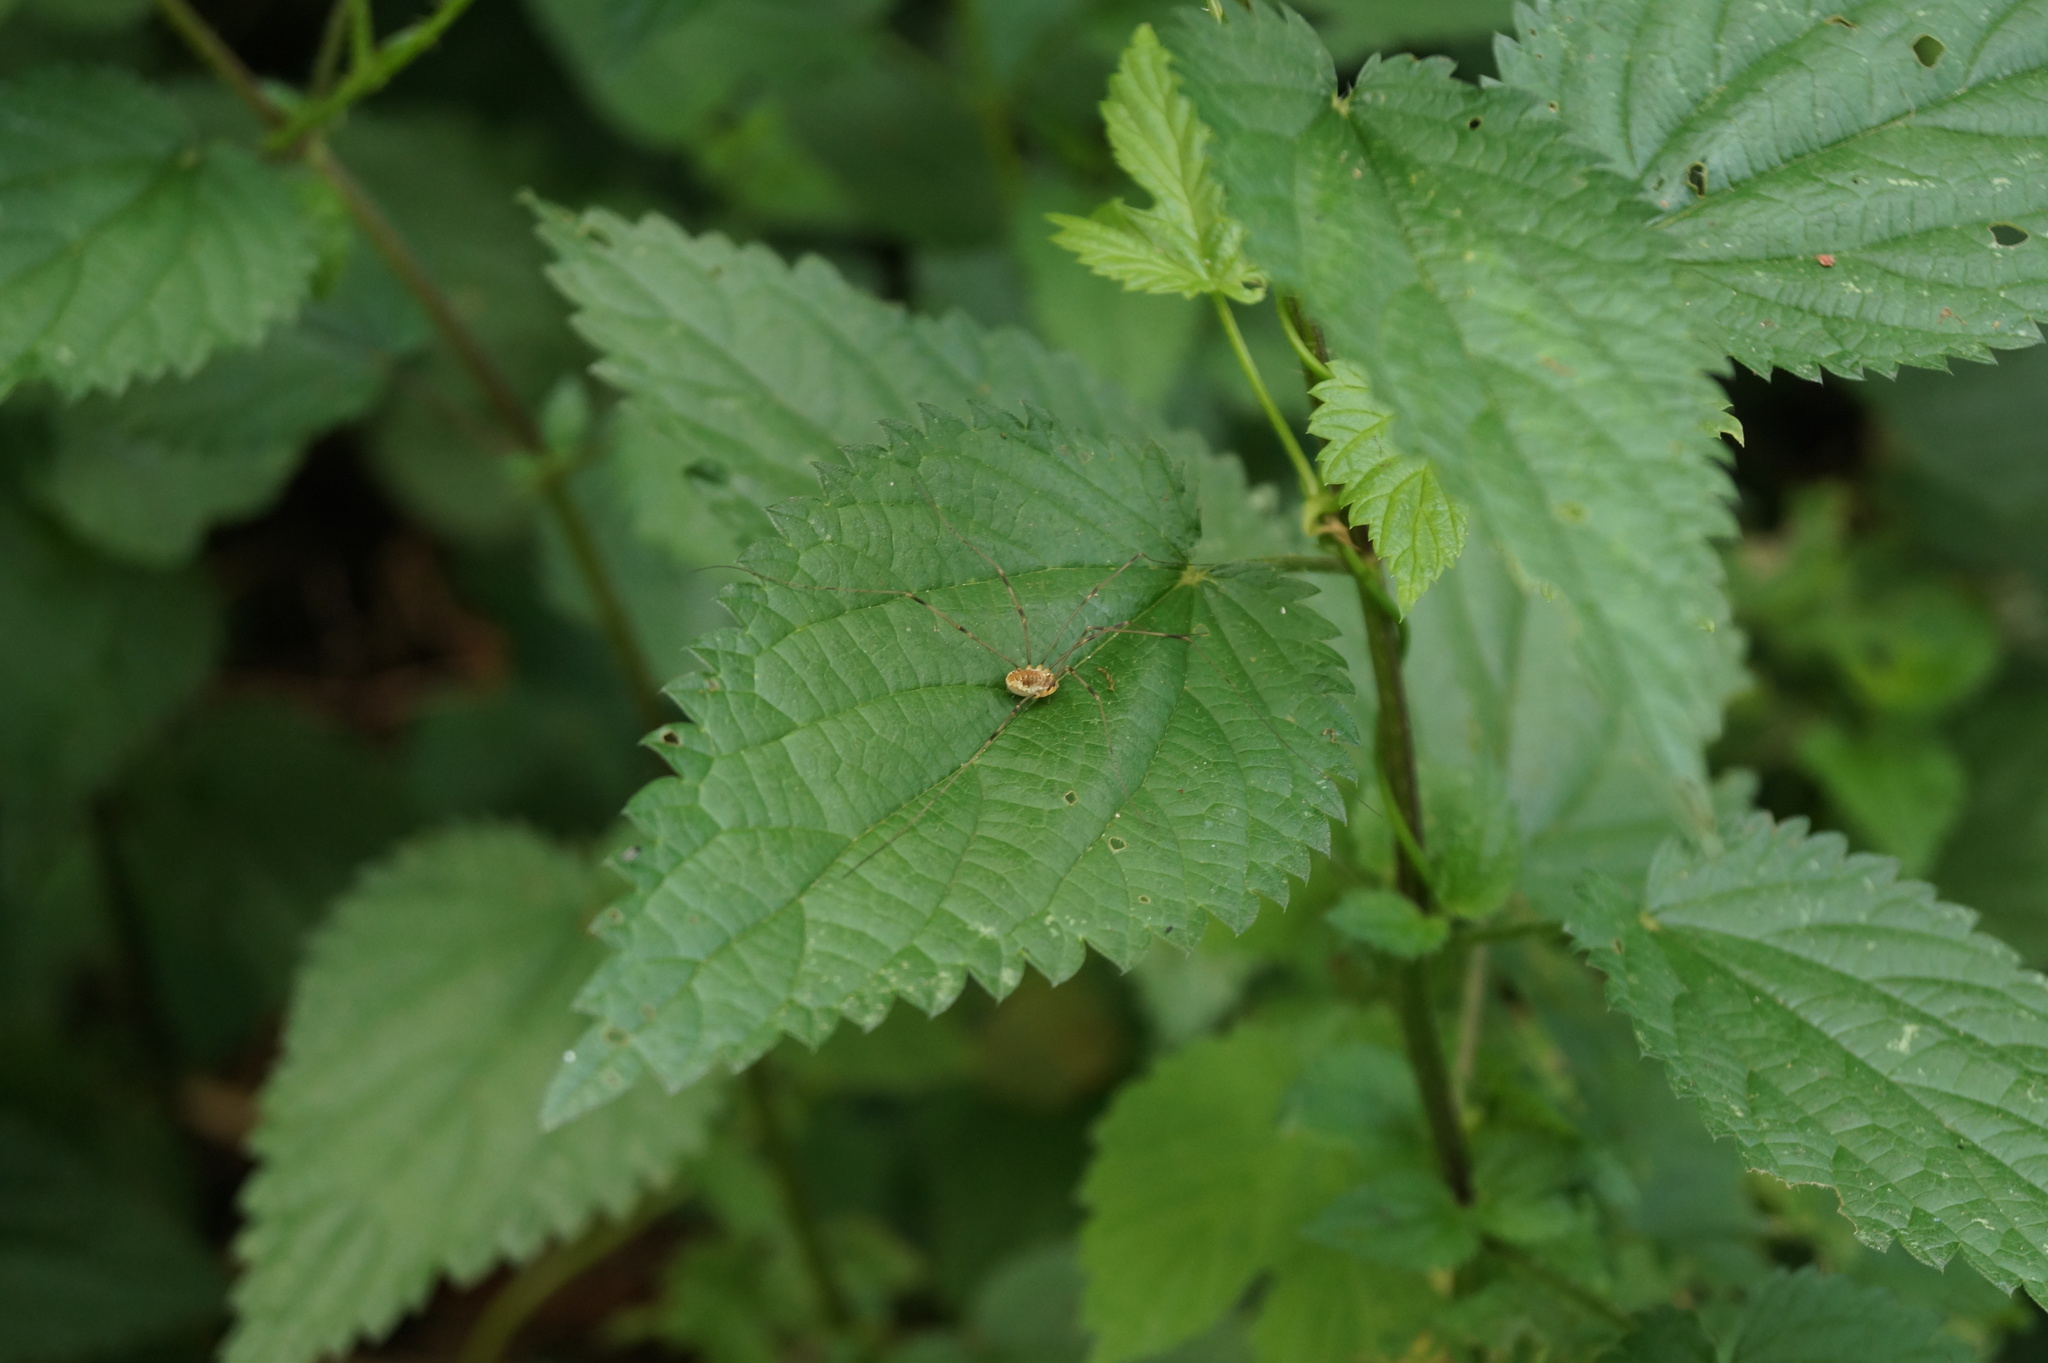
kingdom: Animalia
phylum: Arthropoda
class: Arachnida
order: Opiliones
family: Phalangiidae
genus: Opilio
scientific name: Opilio canestrinii
